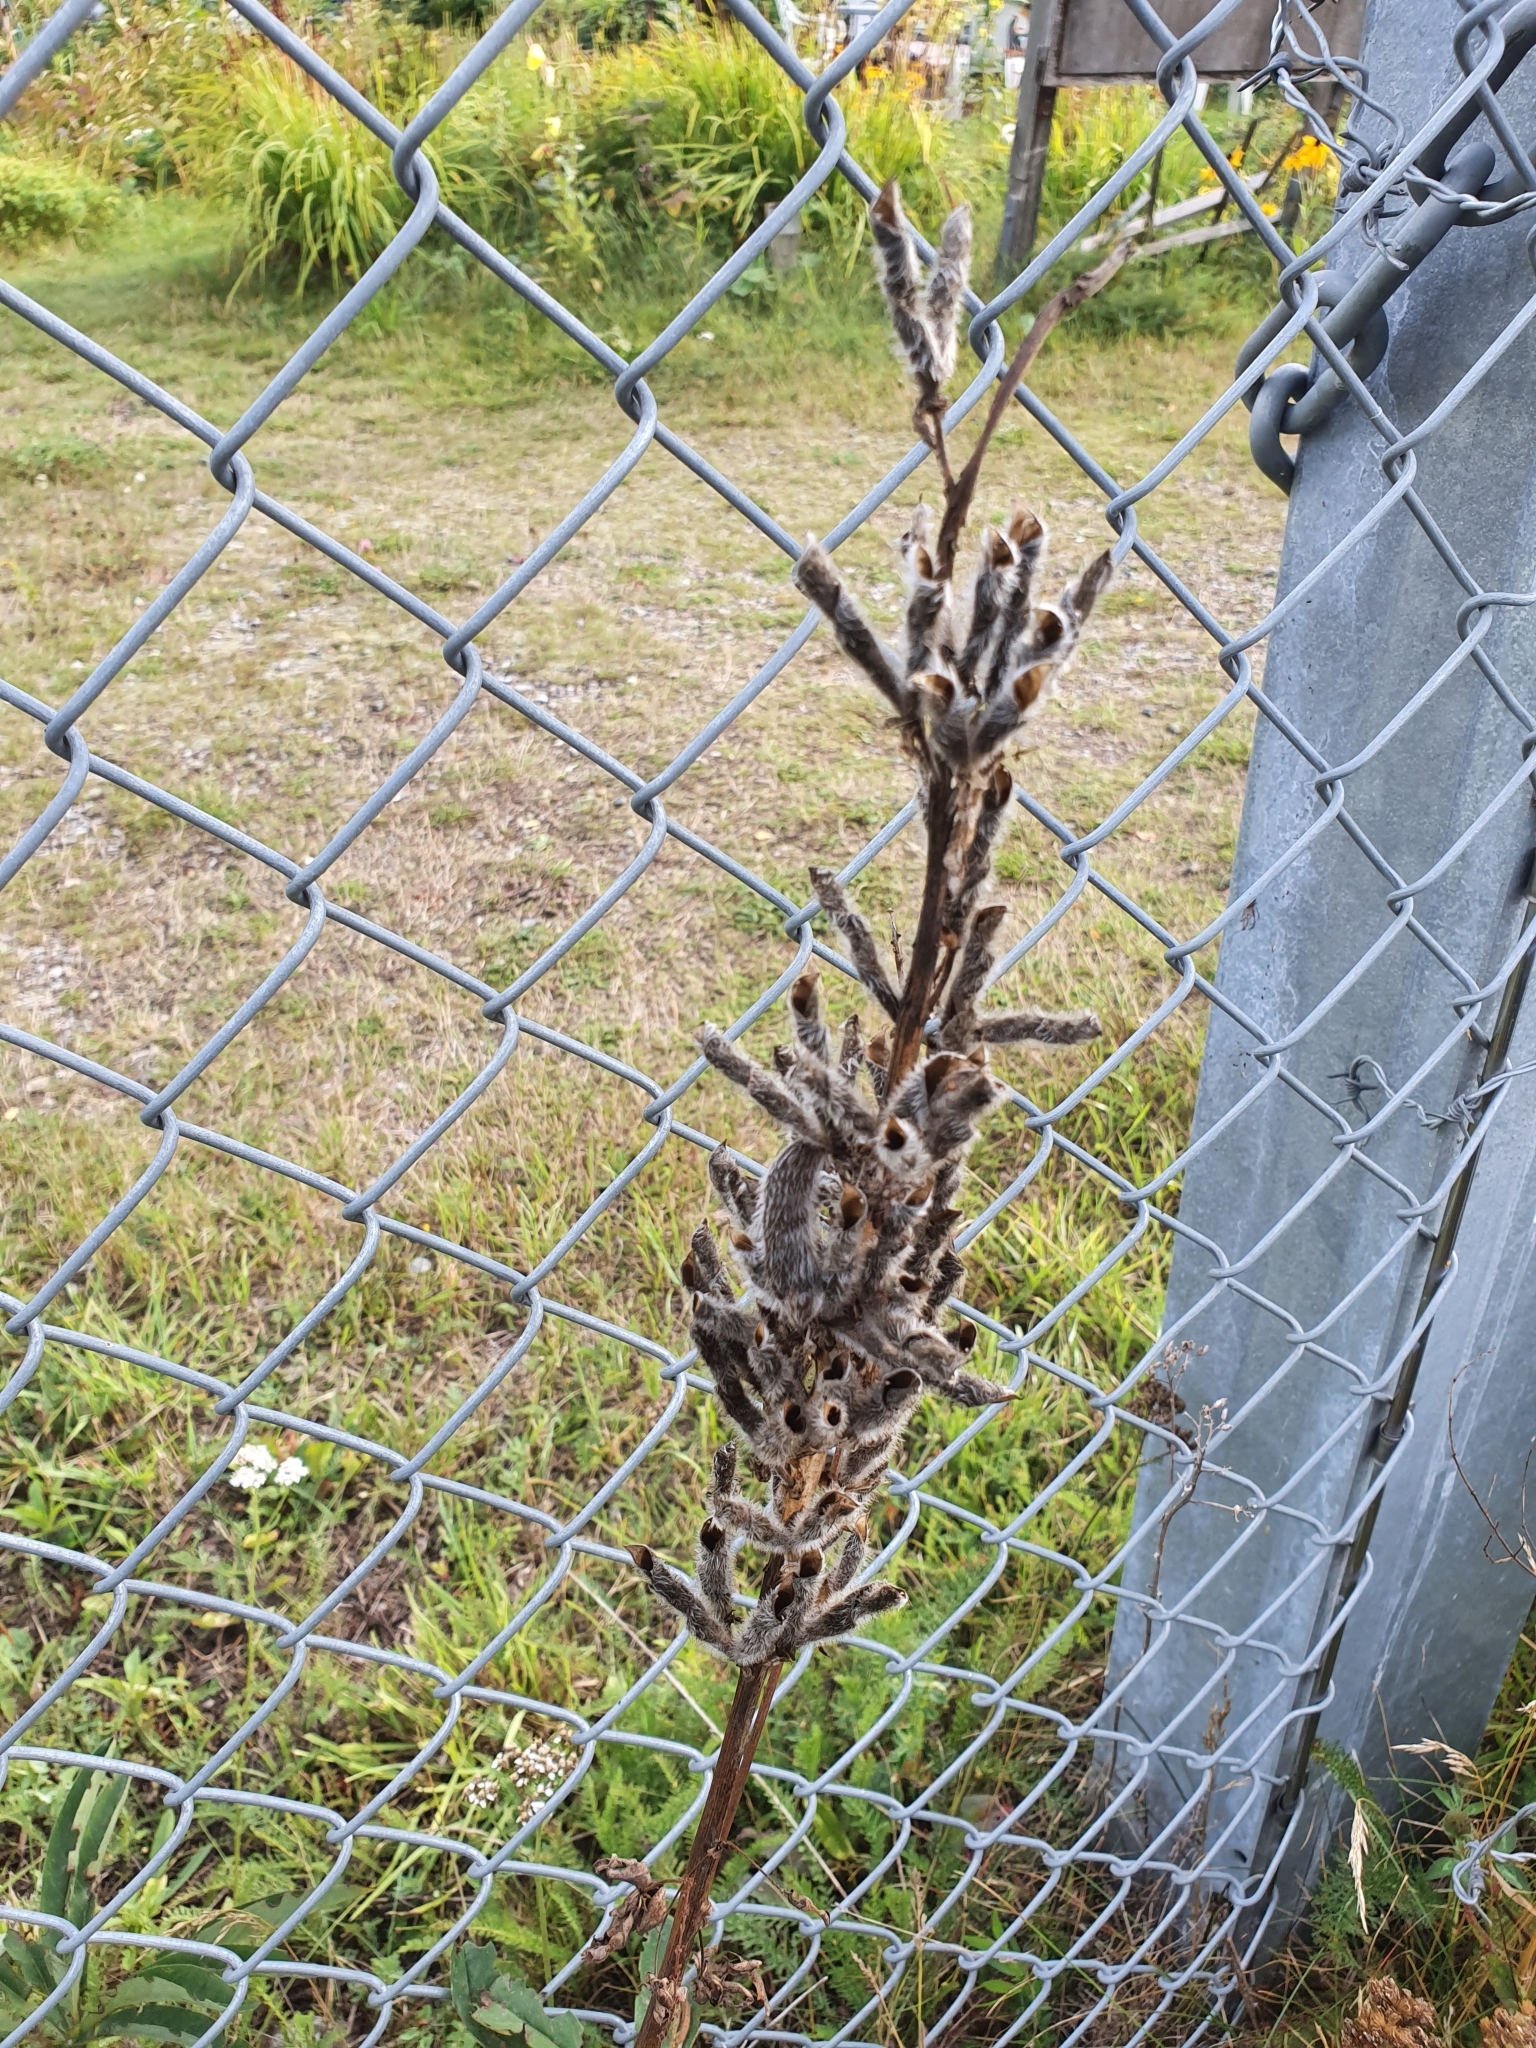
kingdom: Plantae
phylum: Tracheophyta
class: Magnoliopsida
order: Fabales
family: Fabaceae
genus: Lupinus
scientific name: Lupinus polyphyllus
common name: Garden lupin
